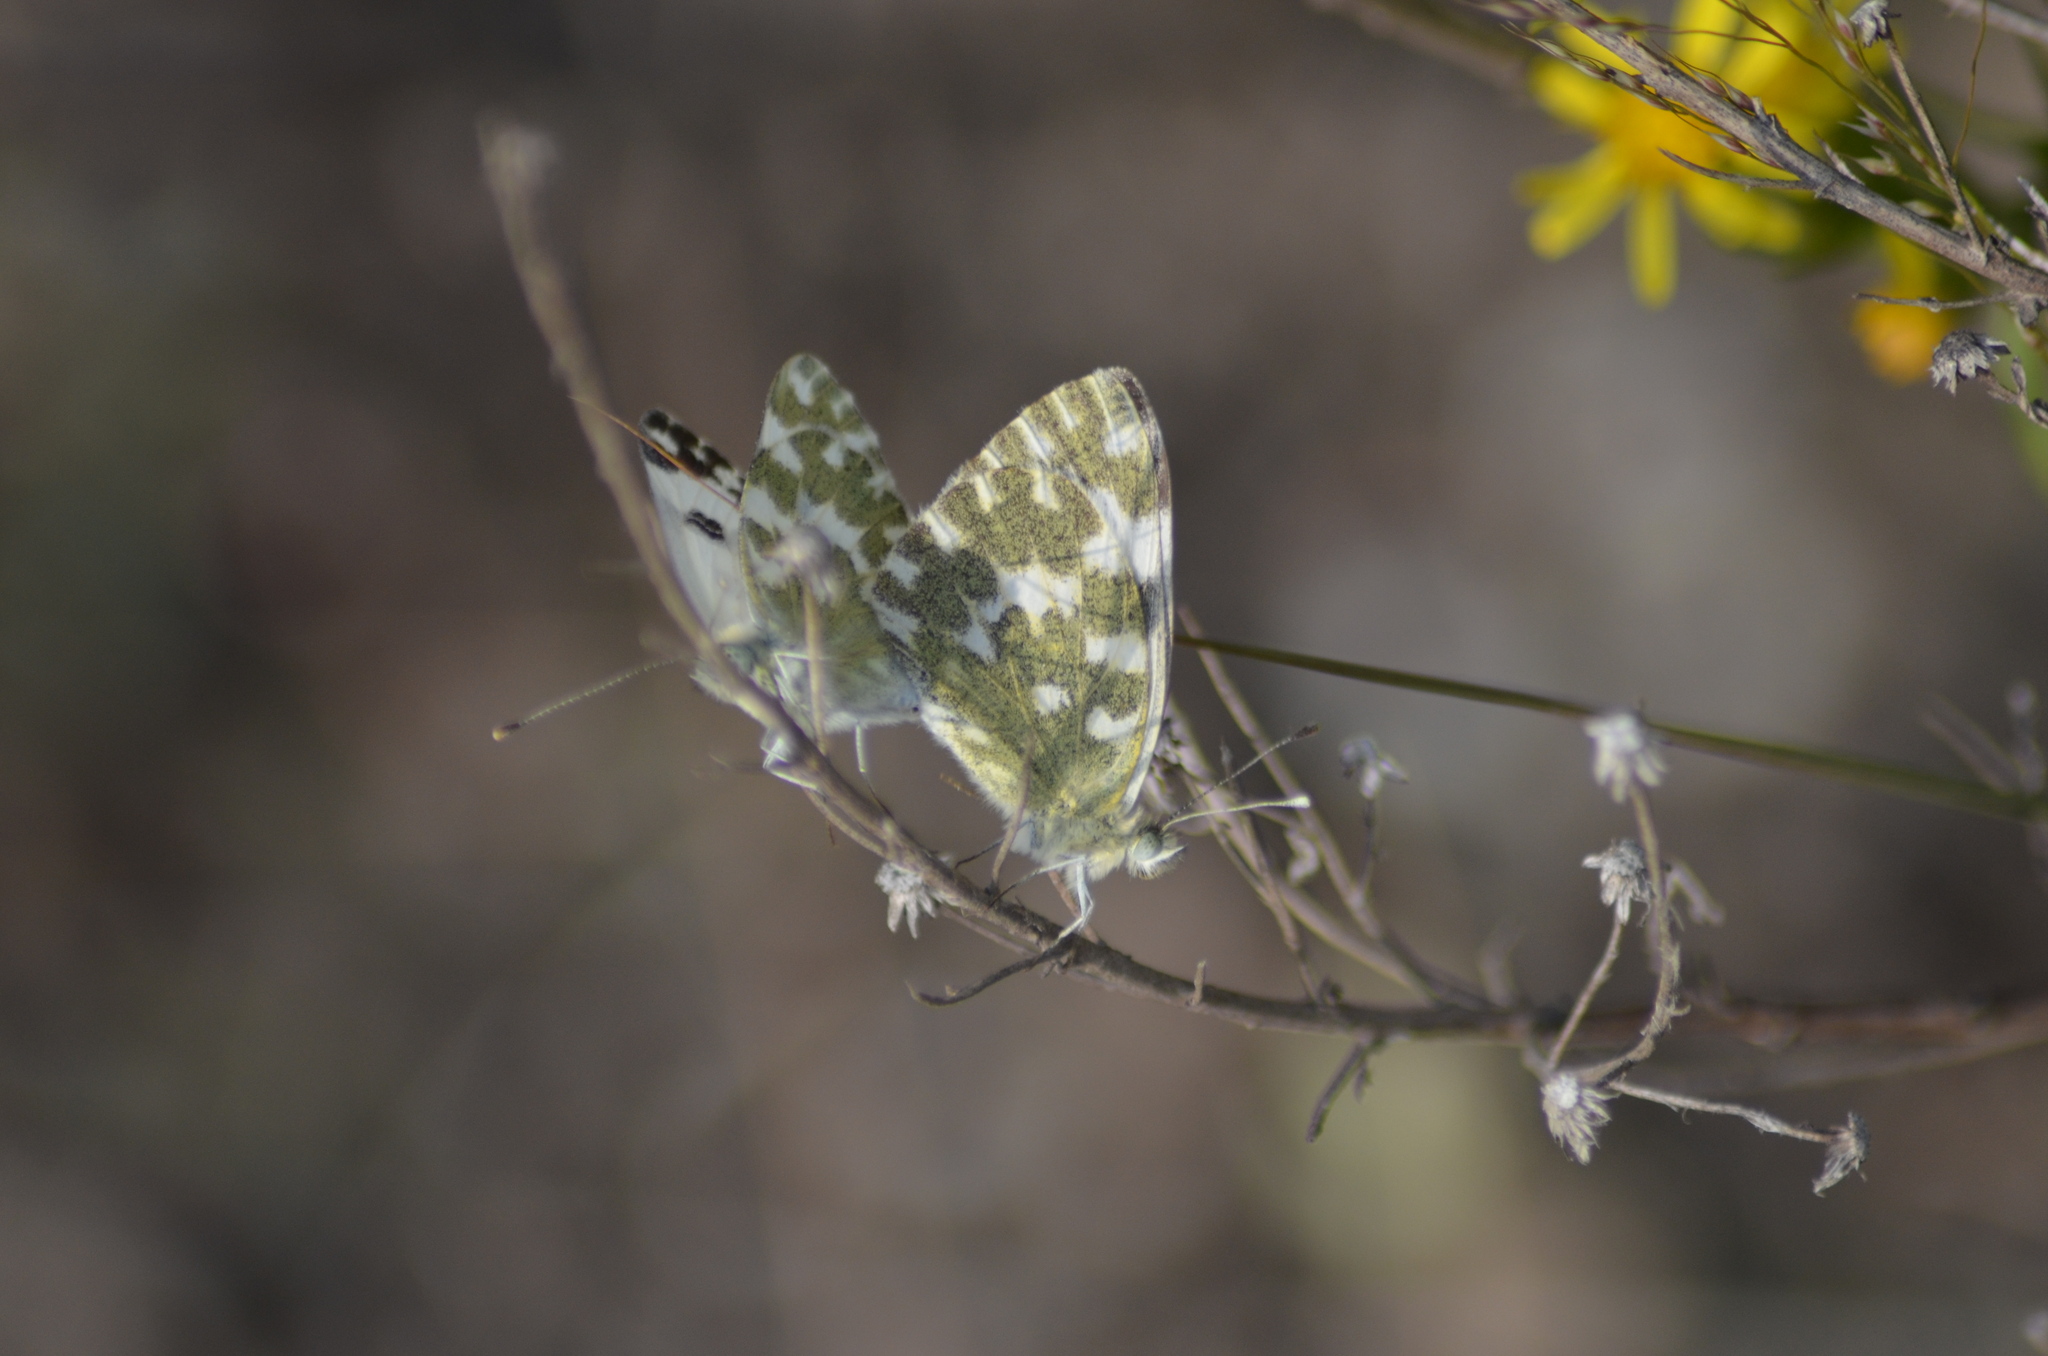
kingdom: Animalia
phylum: Arthropoda
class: Insecta
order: Lepidoptera
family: Pieridae
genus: Pontia
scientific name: Pontia daplidice
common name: Bath white
